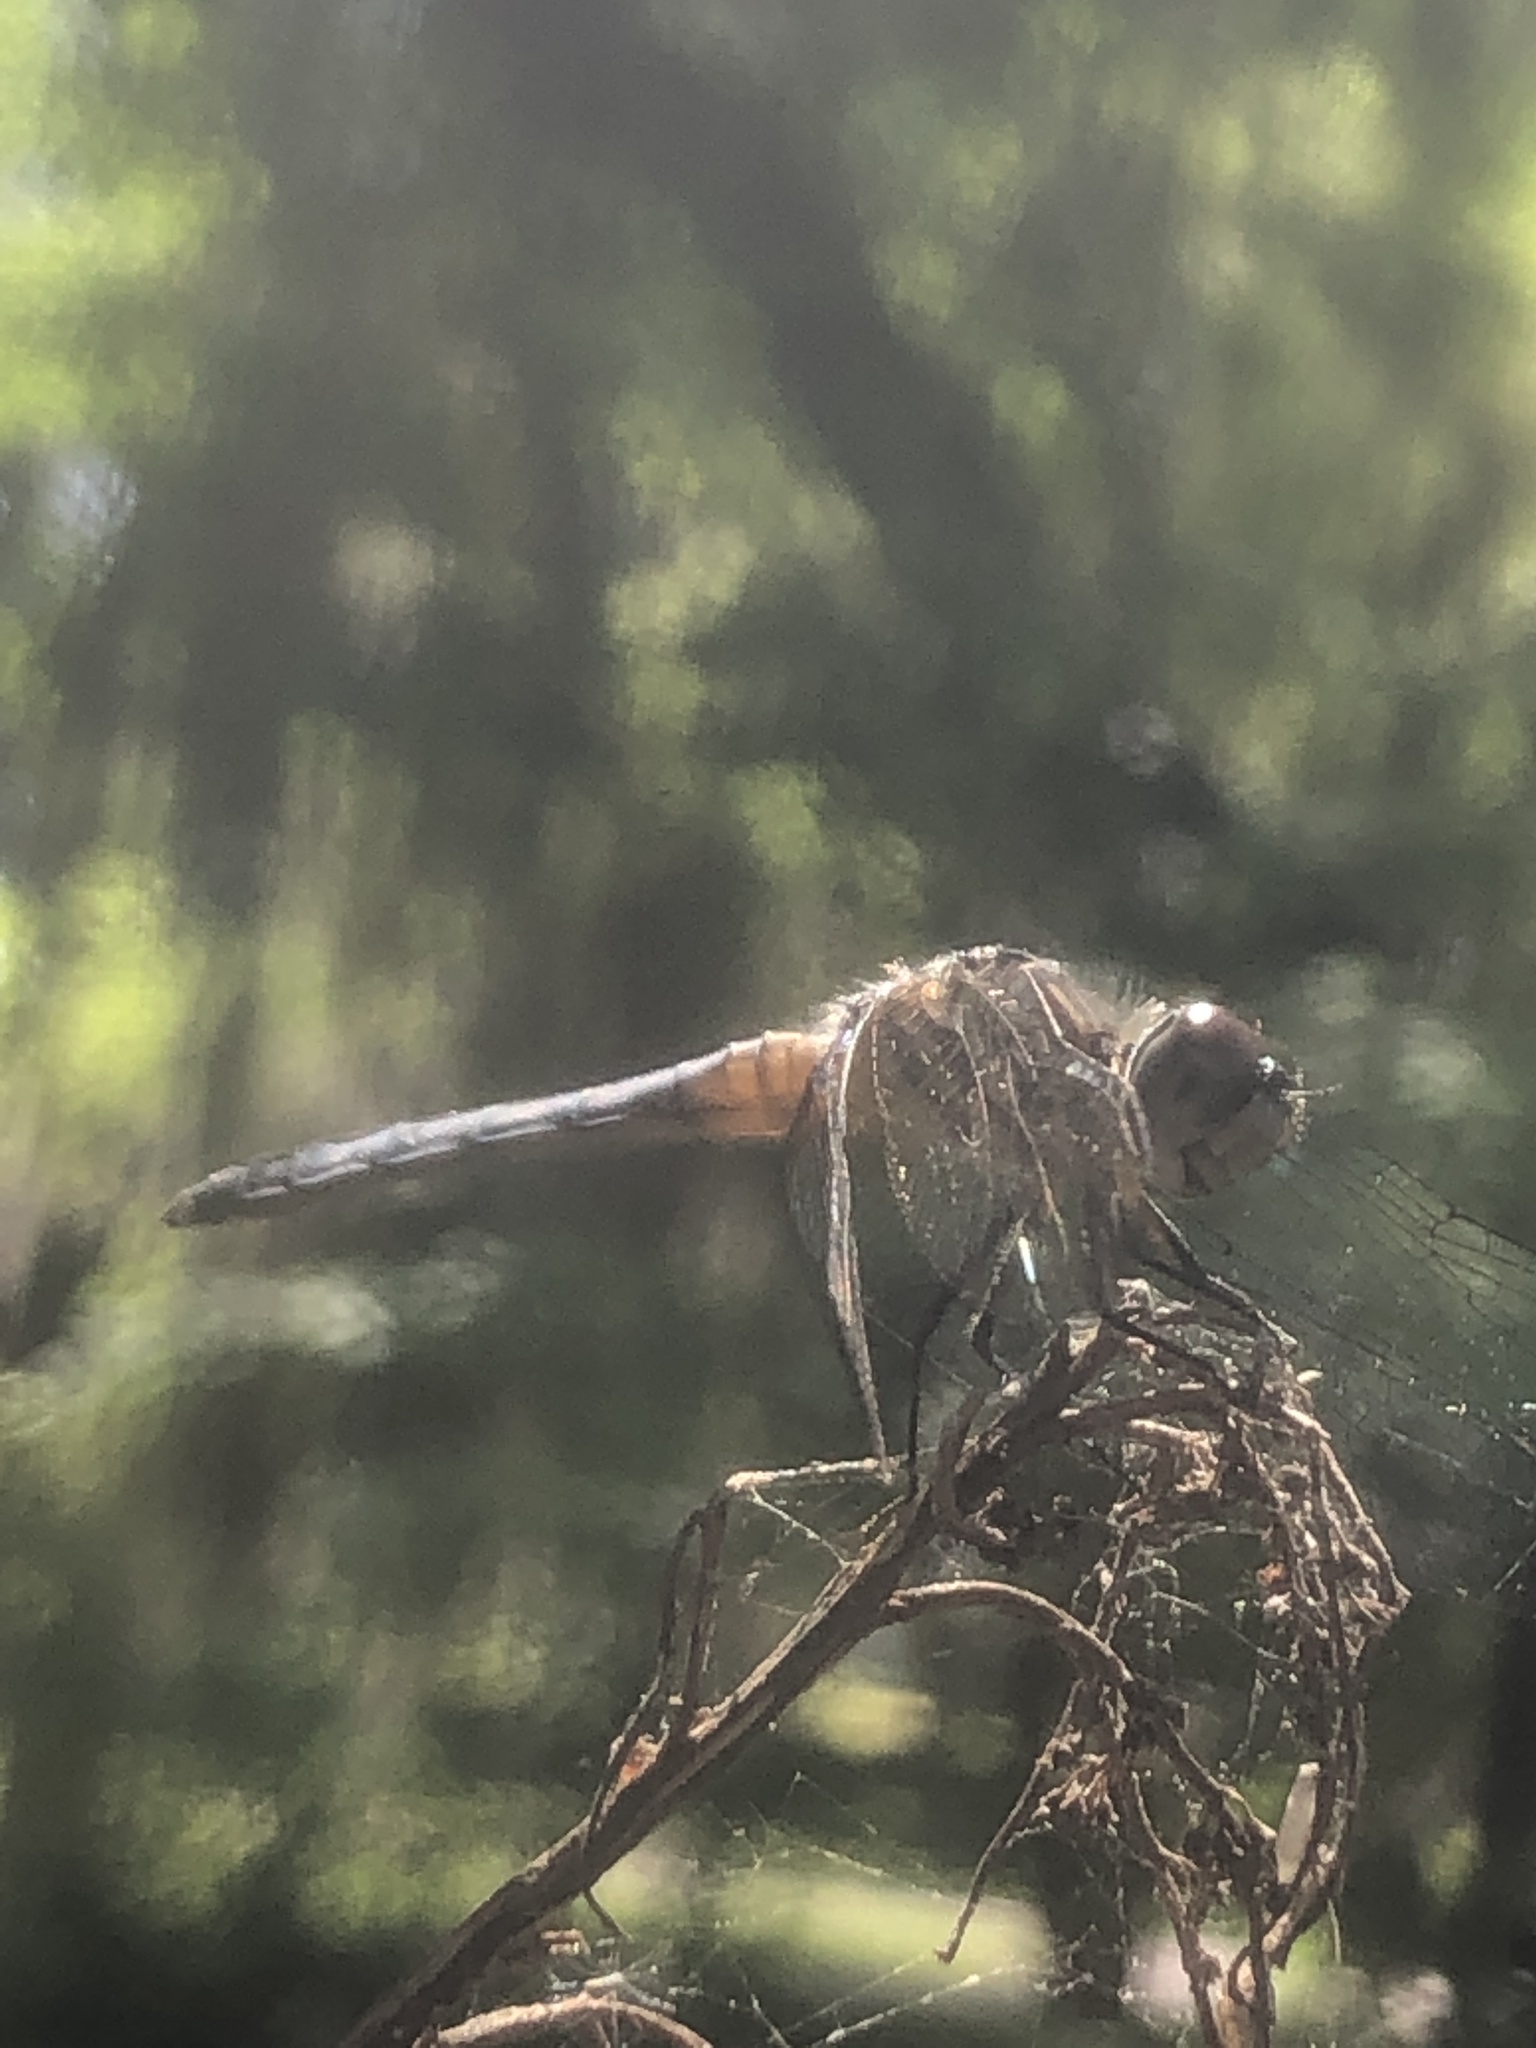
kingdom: Animalia
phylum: Arthropoda
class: Insecta
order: Odonata
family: Libellulidae
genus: Pachydiplax
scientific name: Pachydiplax longipennis
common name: Blue dasher
